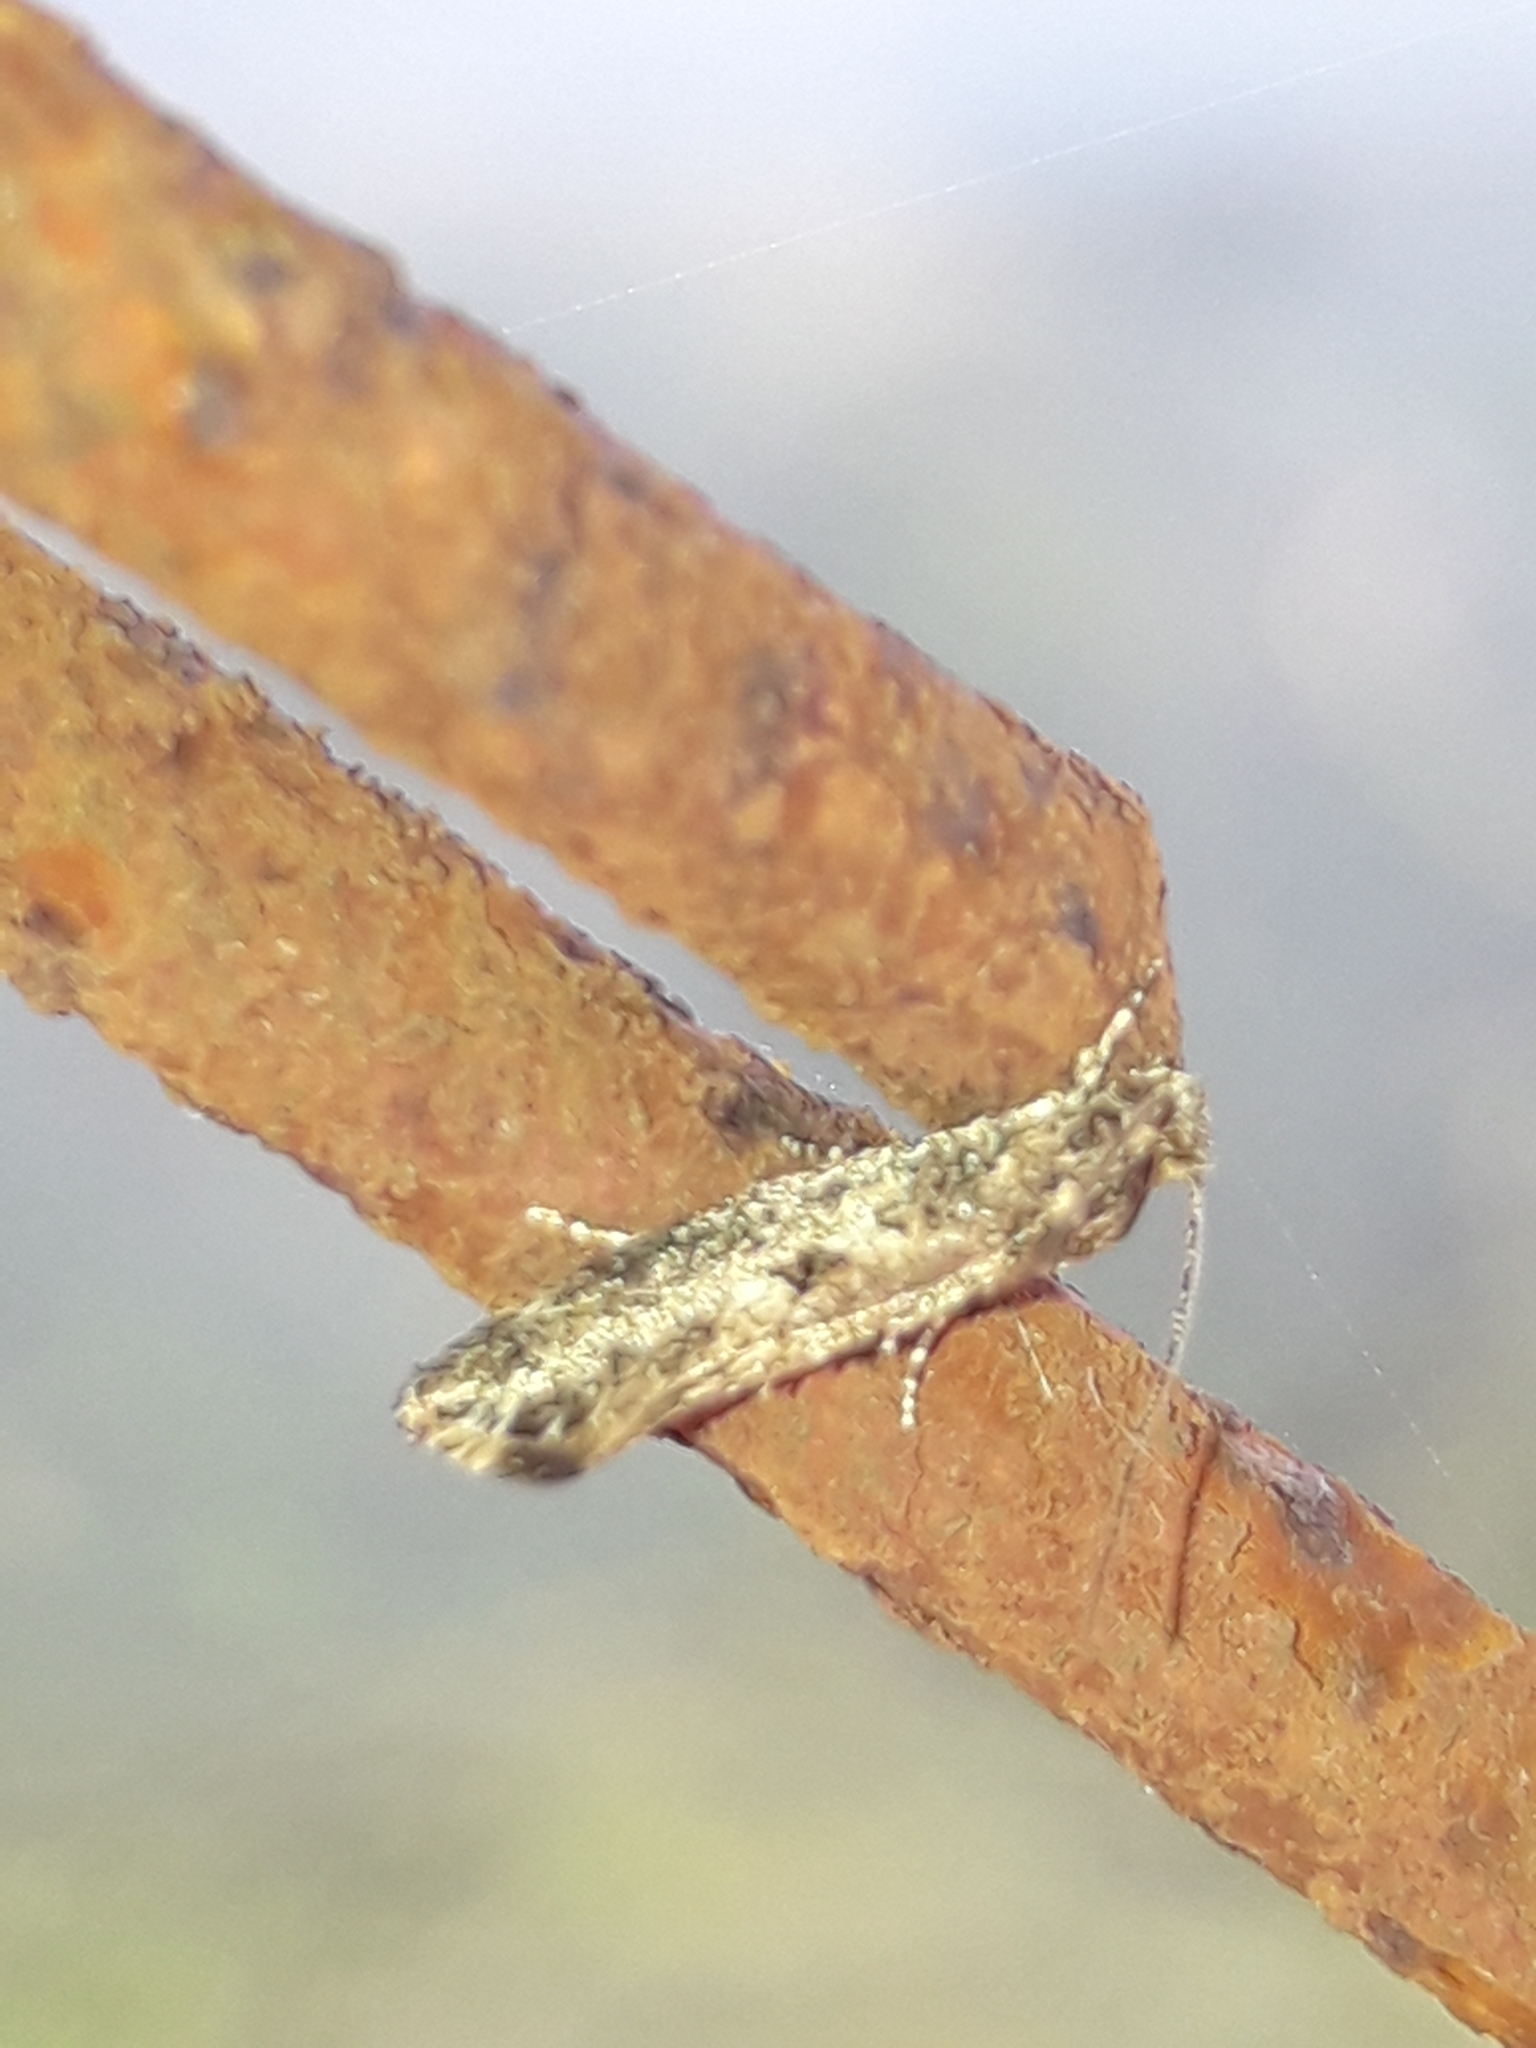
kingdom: Animalia
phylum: Arthropoda
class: Insecta
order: Lepidoptera
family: Tineidae
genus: Tinea
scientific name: Tinea conferta
